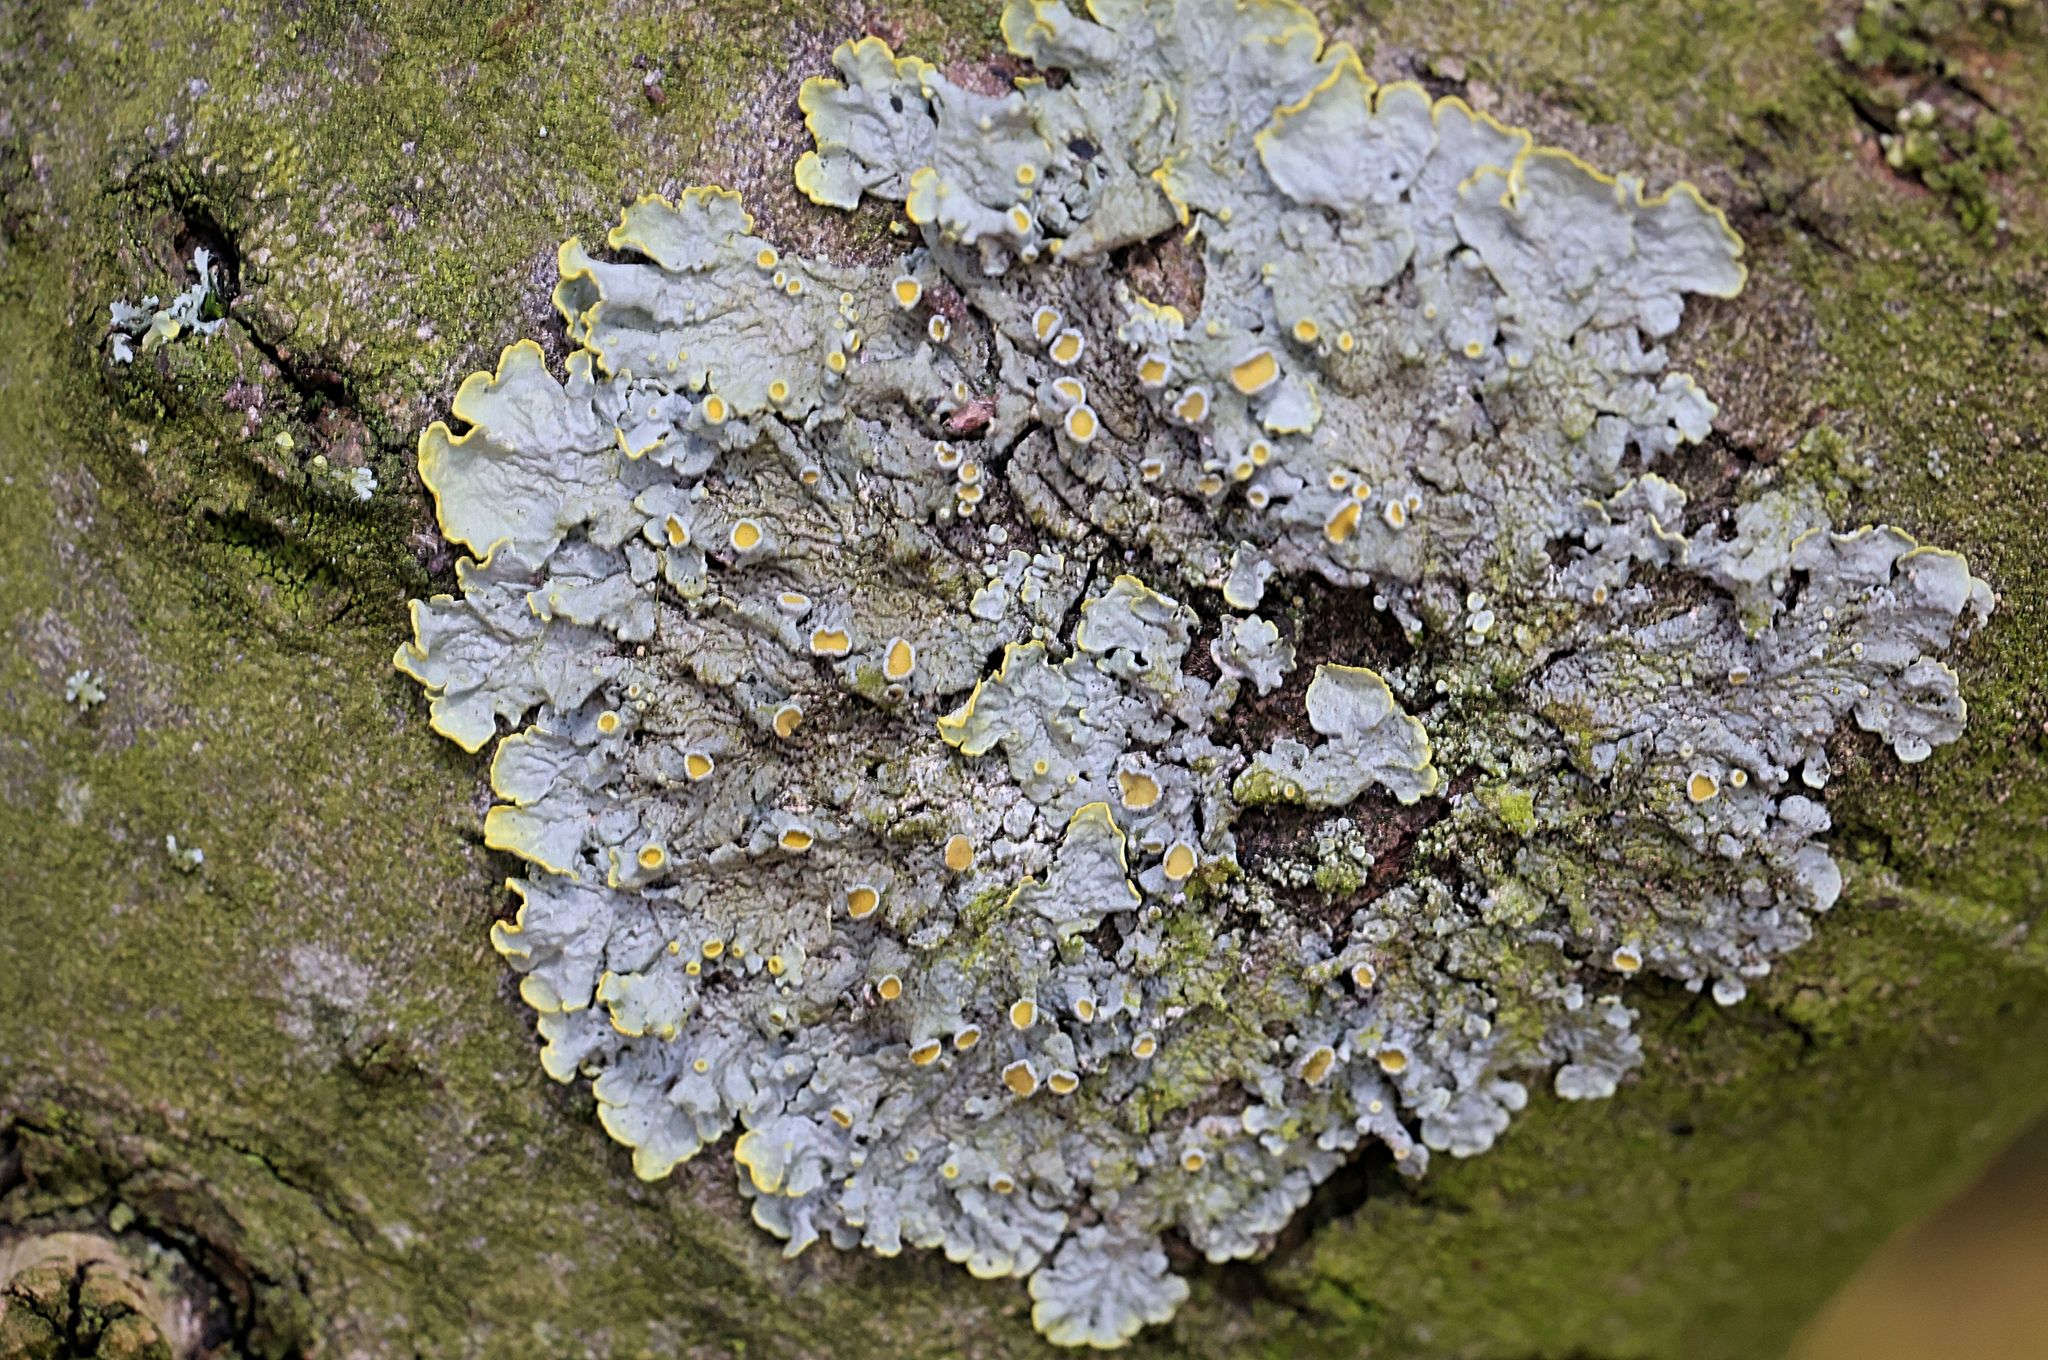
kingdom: Fungi
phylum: Ascomycota
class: Lecanoromycetes
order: Teloschistales
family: Teloschistaceae
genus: Xanthoria
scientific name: Xanthoria parietina
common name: Common orange lichen
